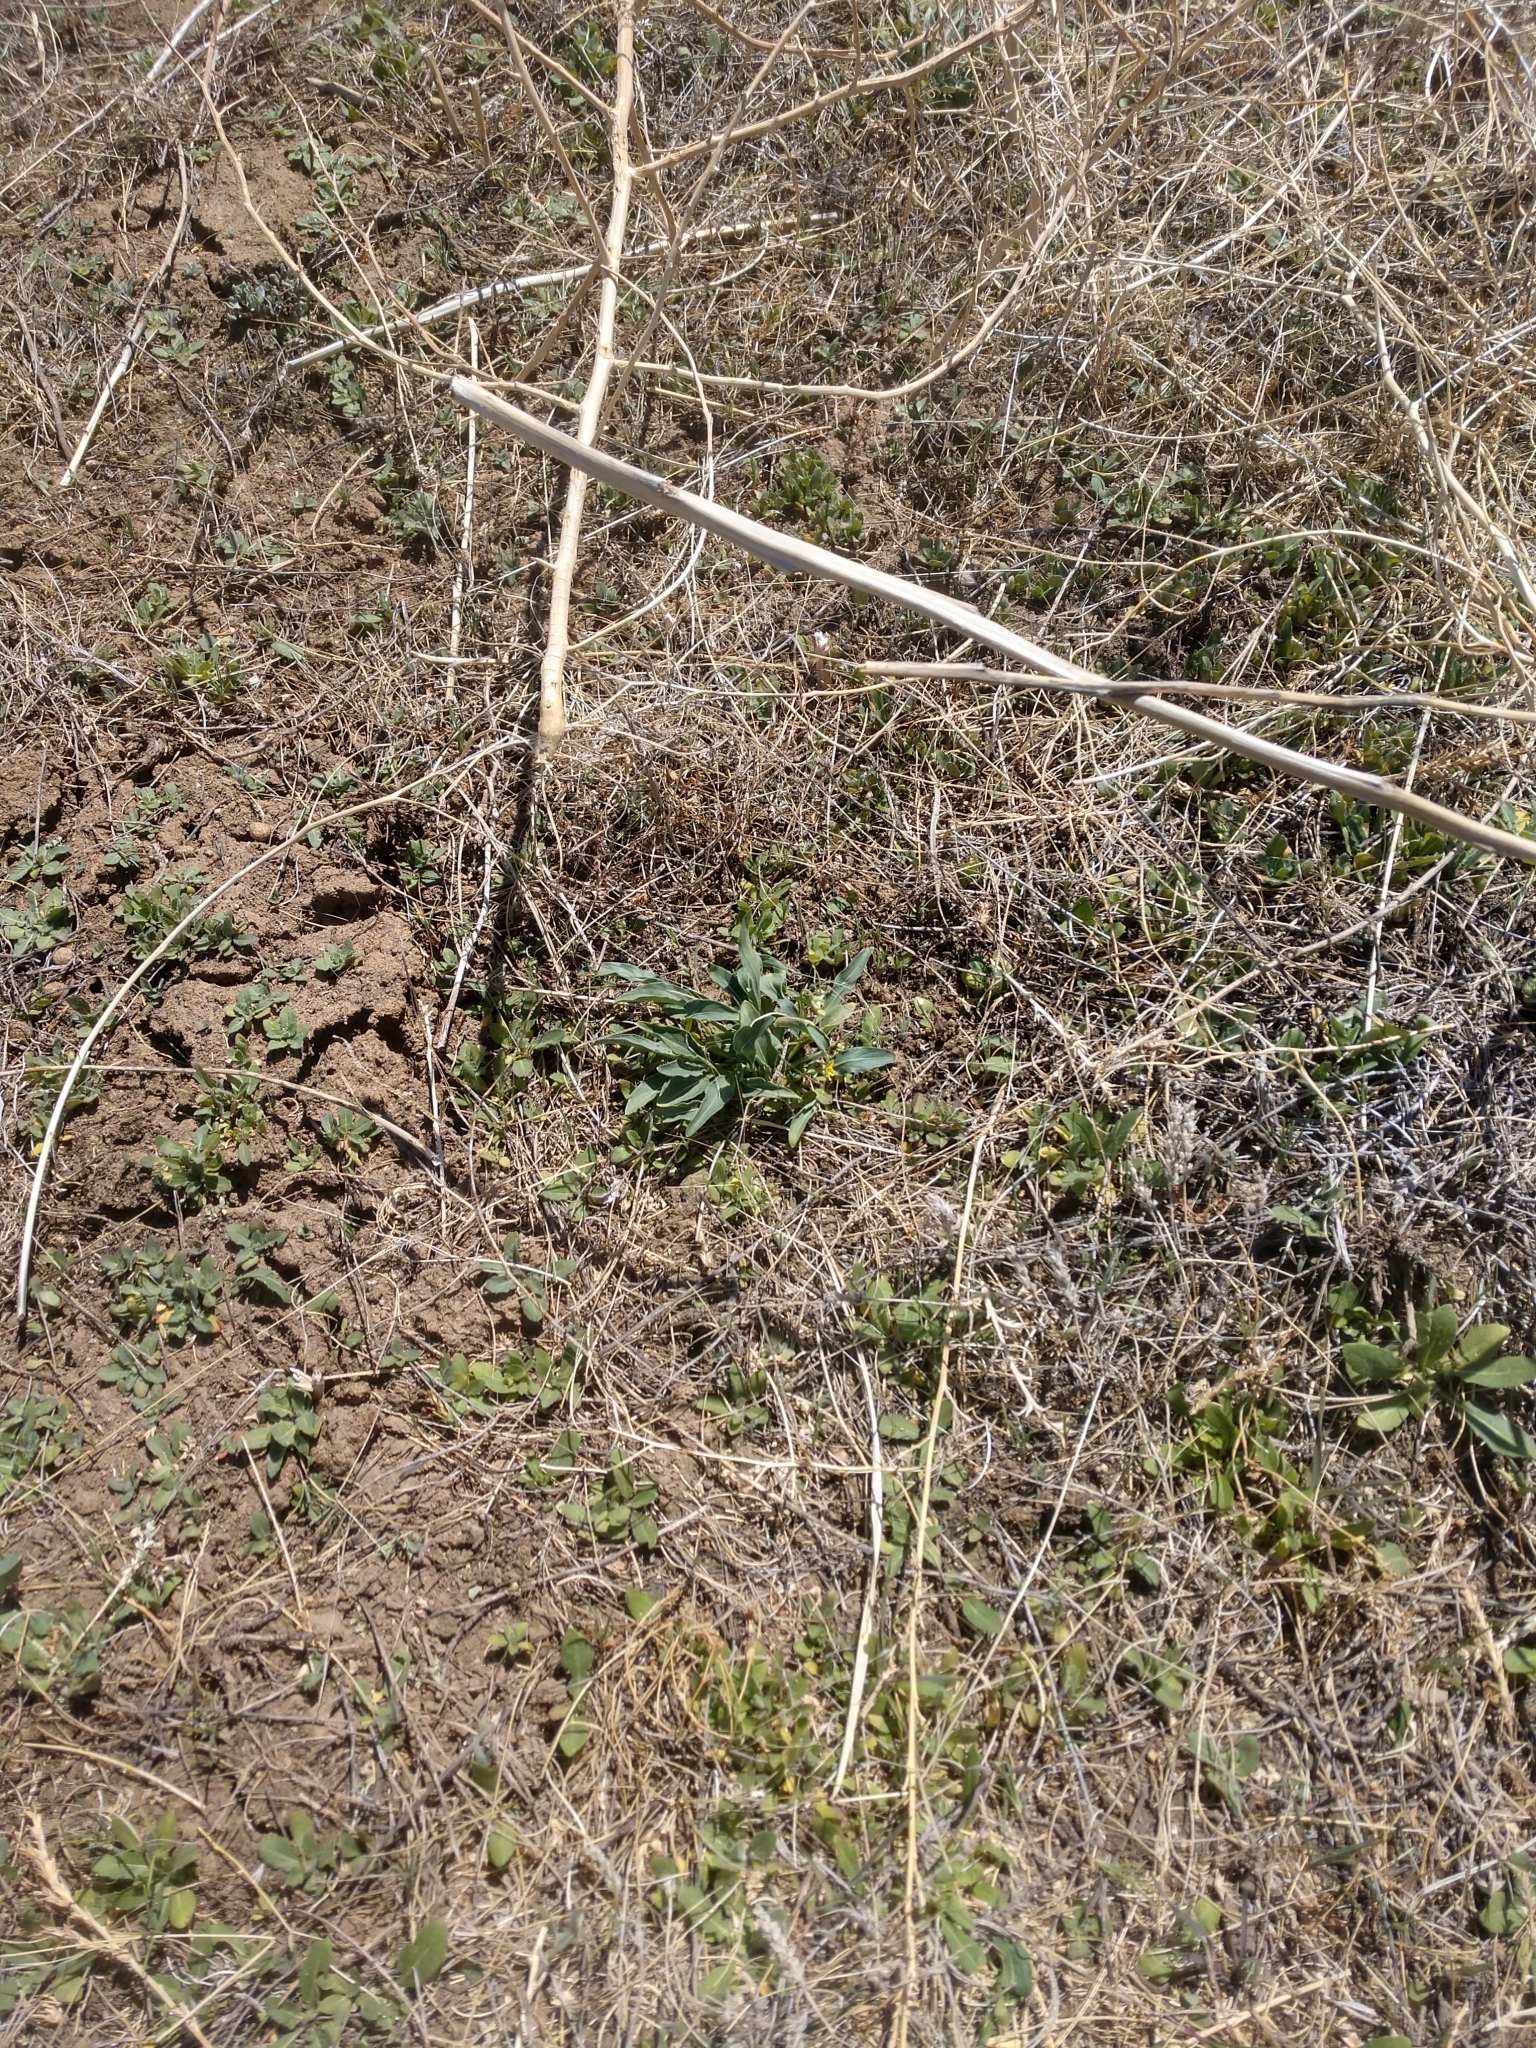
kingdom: Plantae
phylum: Tracheophyta
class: Magnoliopsida
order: Malpighiales
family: Violaceae
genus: Viola
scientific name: Viola nuttallii
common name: Yellow prairie violet
